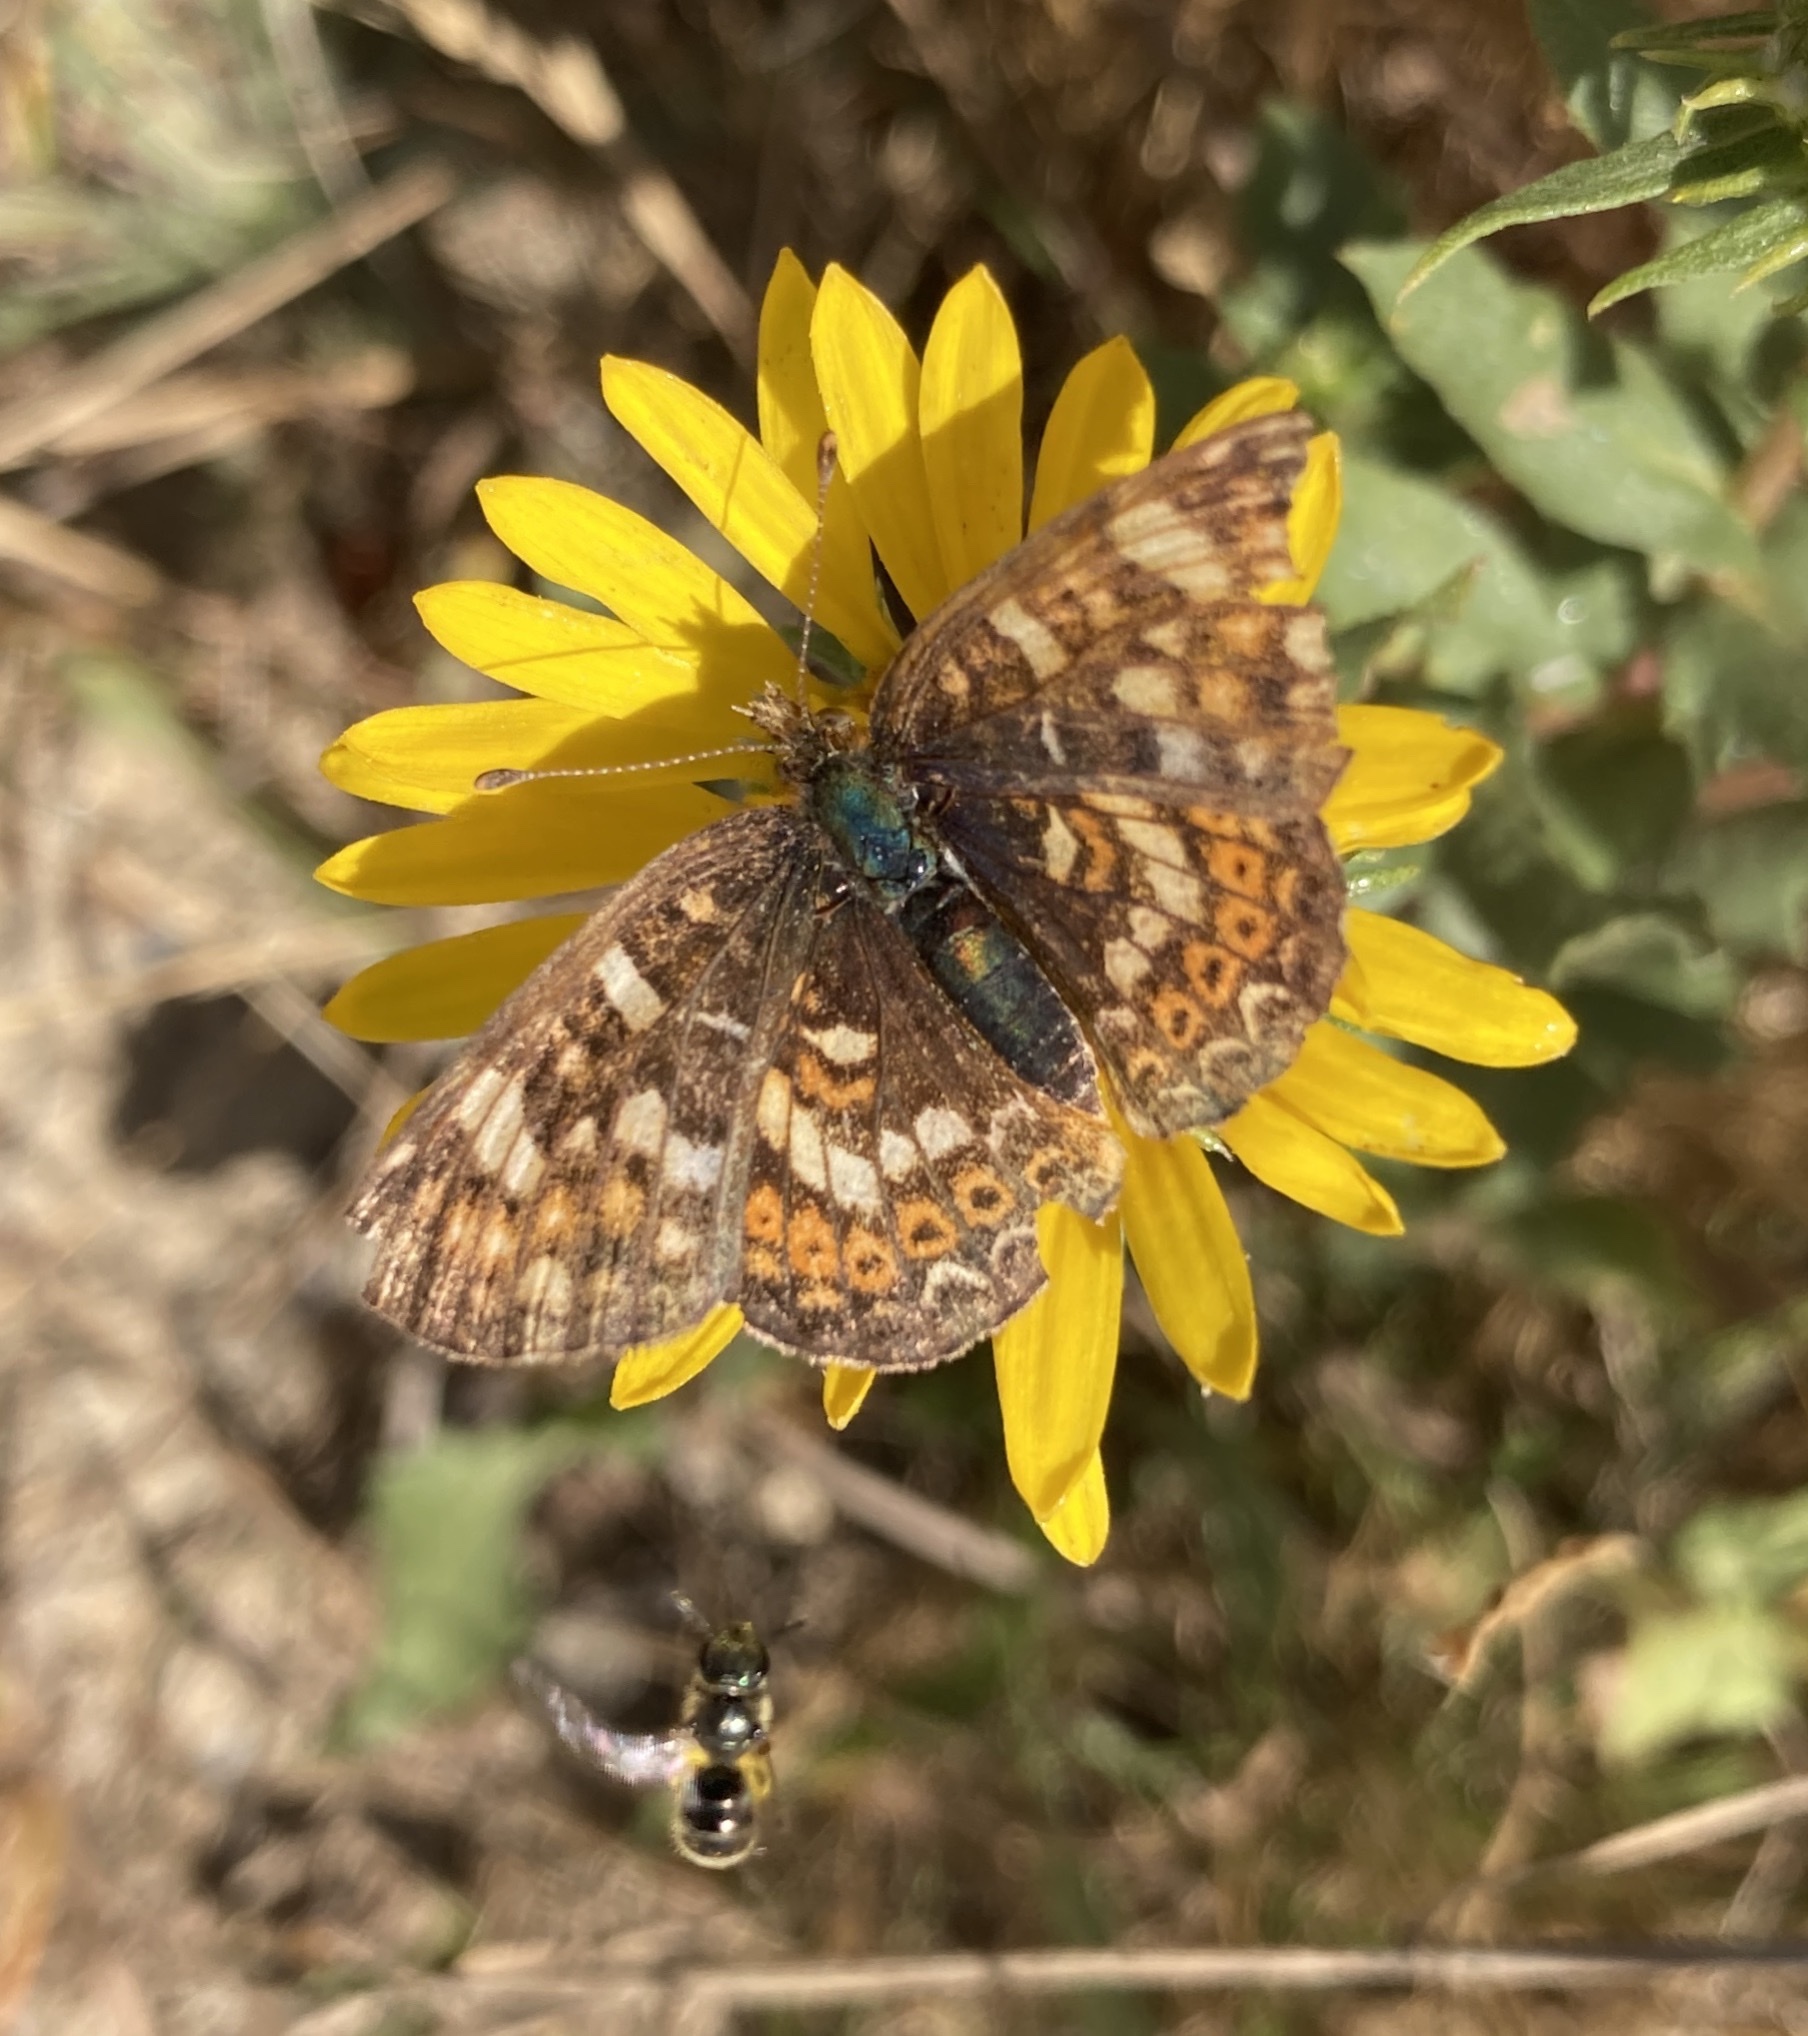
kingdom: Animalia
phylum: Arthropoda
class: Insecta
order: Lepidoptera
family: Nymphalidae
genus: Phyciodes
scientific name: Phyciodes tharos
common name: Pearl crescent
